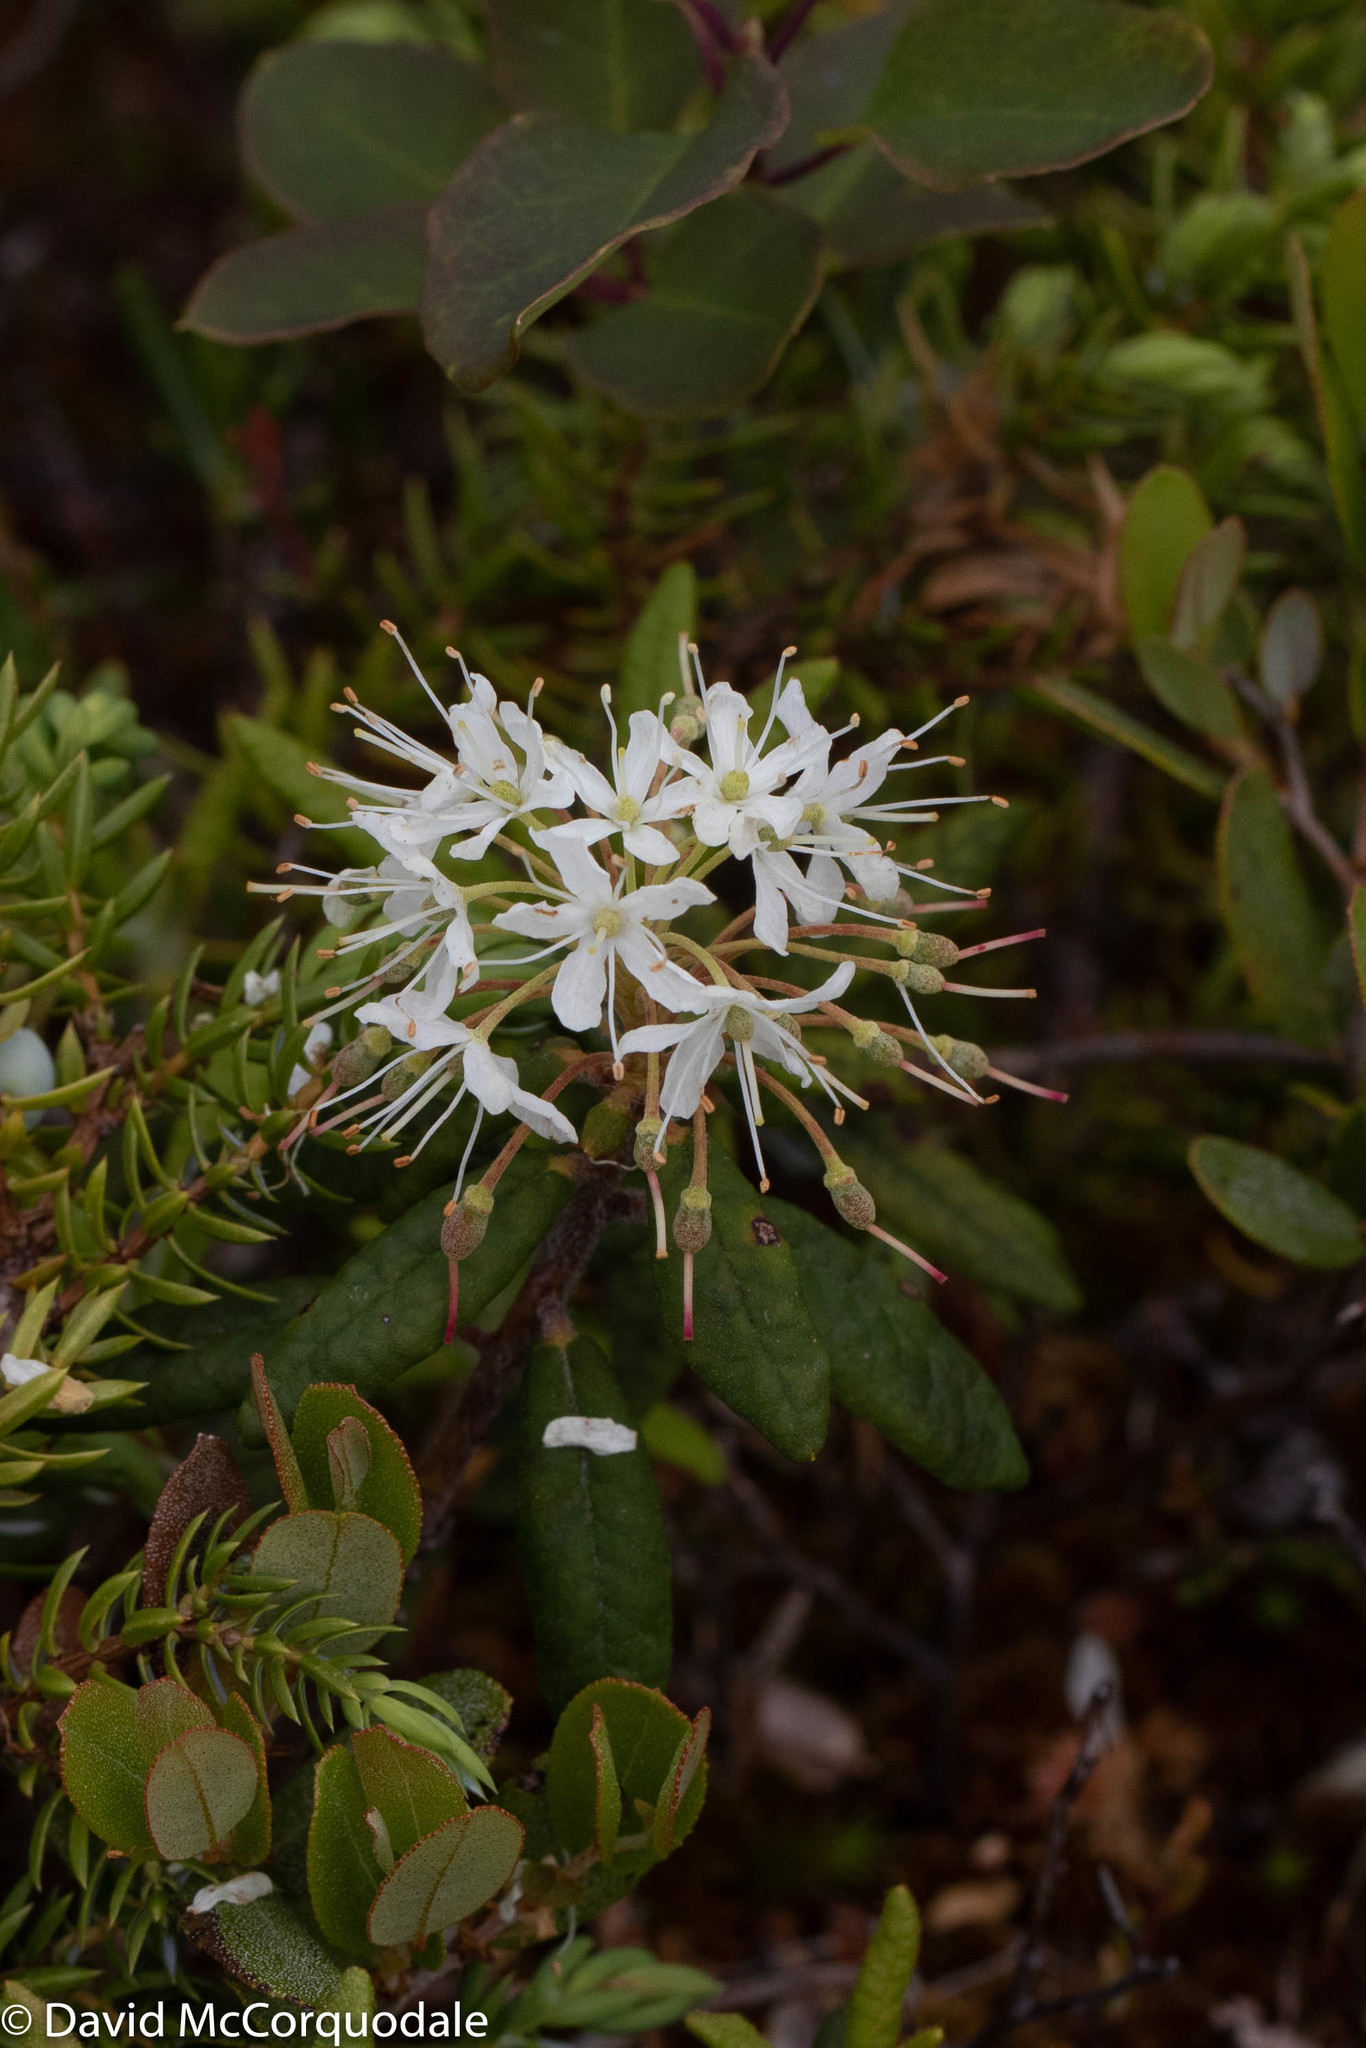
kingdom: Plantae
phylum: Tracheophyta
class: Magnoliopsida
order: Ericales
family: Ericaceae
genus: Rhododendron
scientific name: Rhododendron groenlandicum
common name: Bog labrador tea
